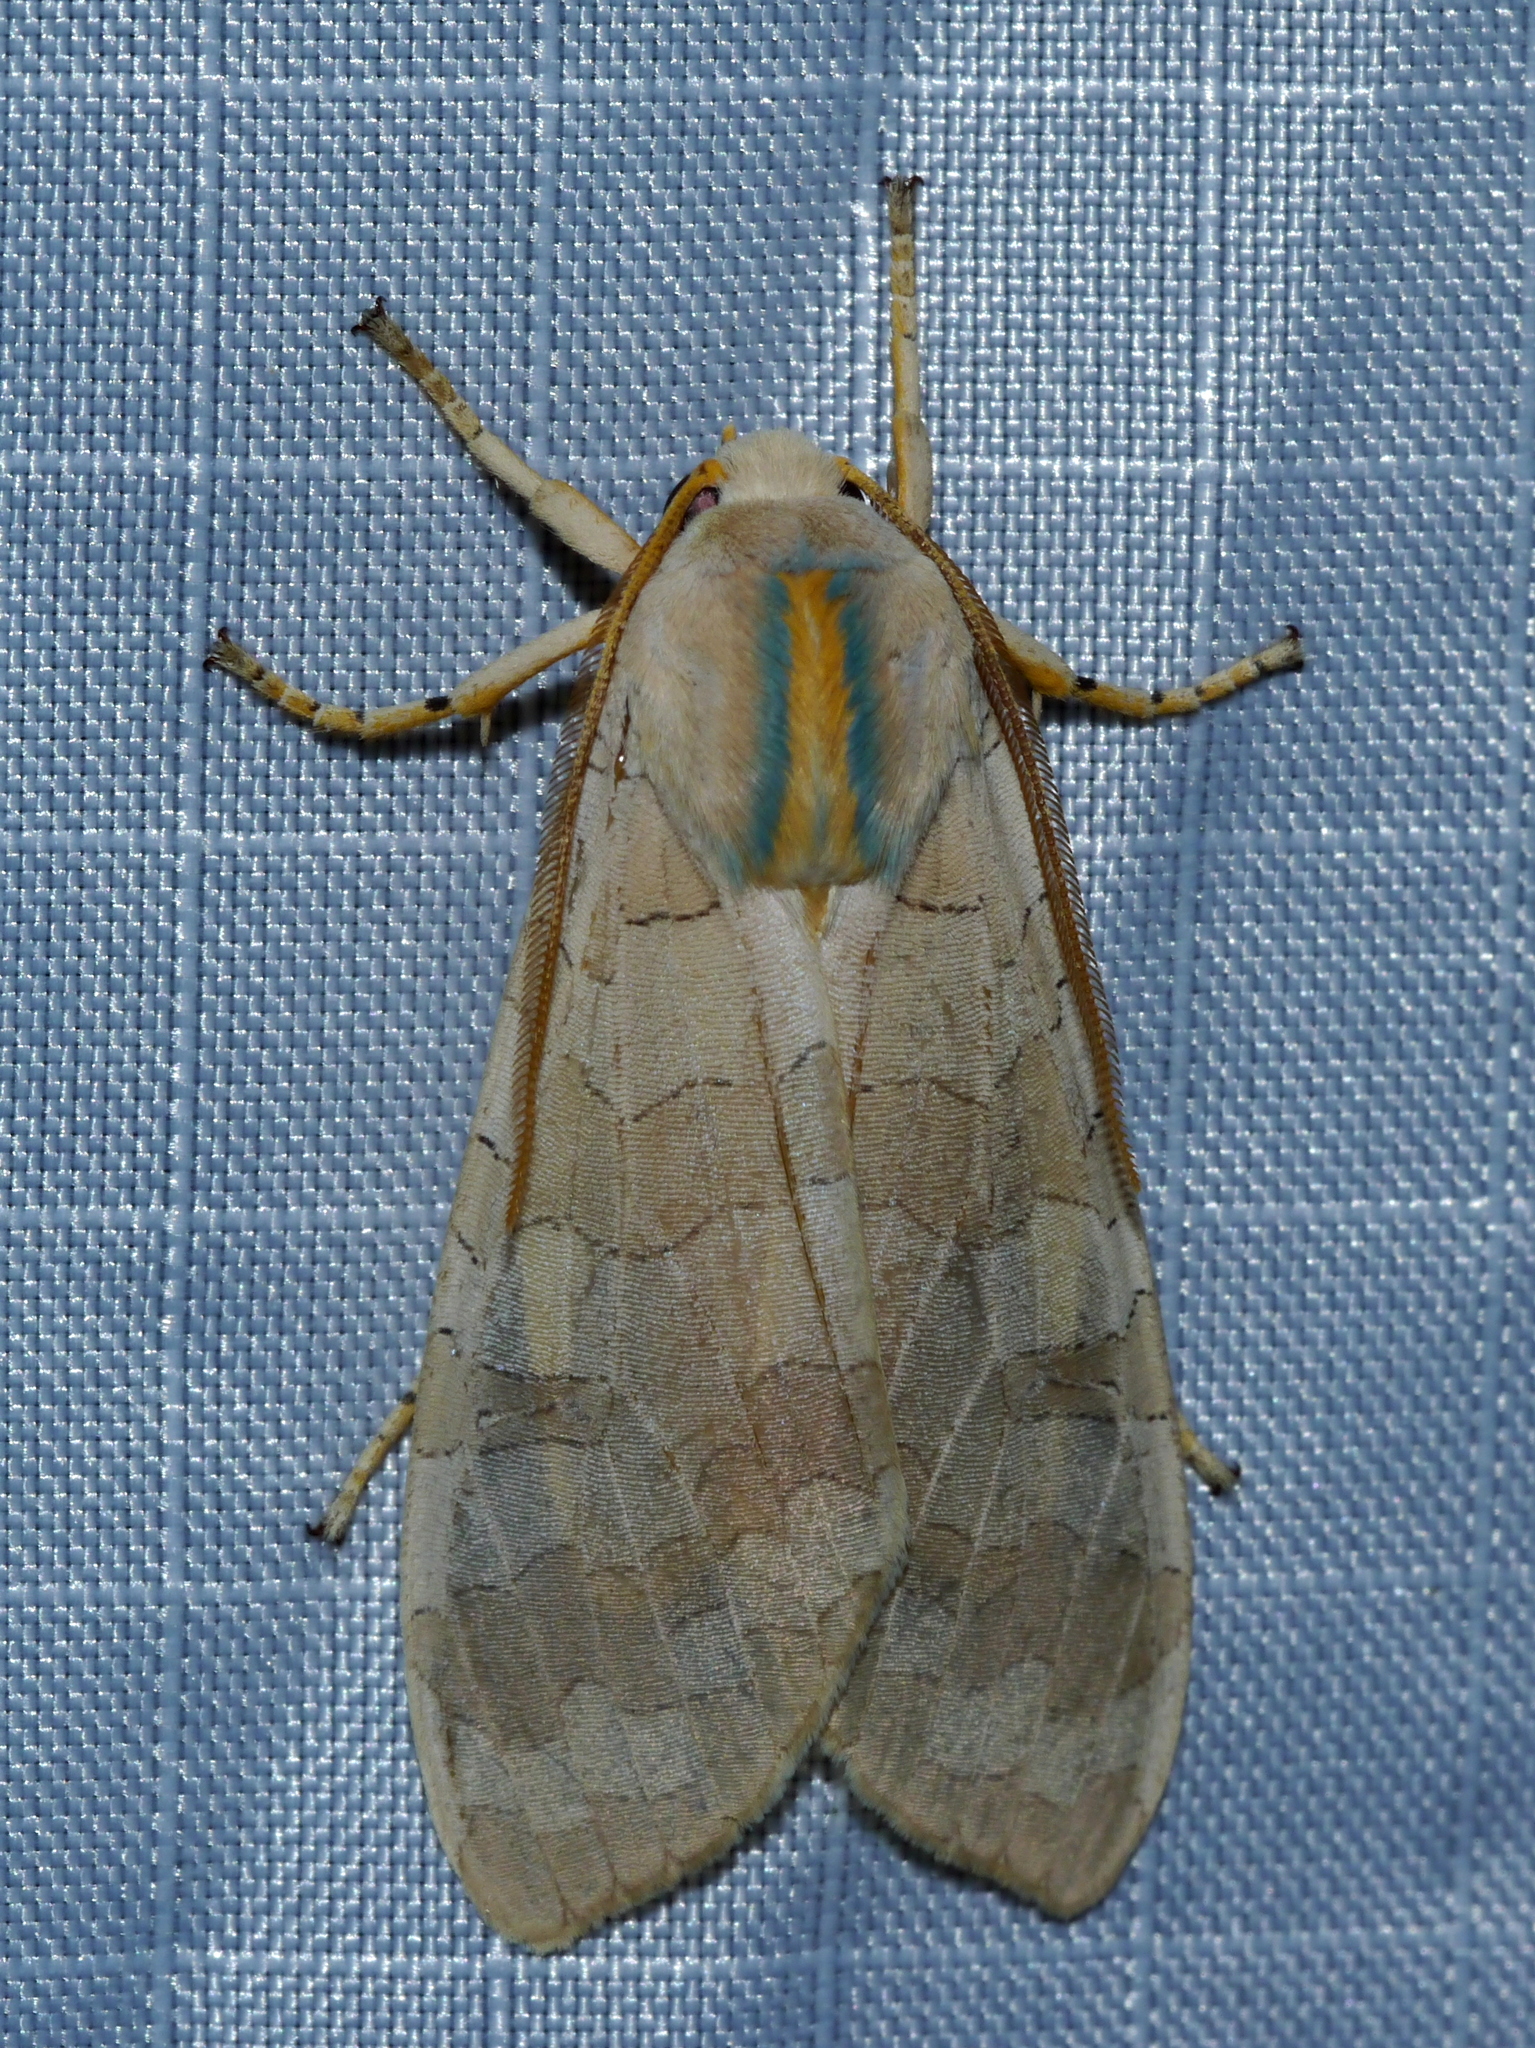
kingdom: Animalia
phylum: Arthropoda
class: Insecta
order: Lepidoptera
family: Erebidae
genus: Halysidota
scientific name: Halysidota
